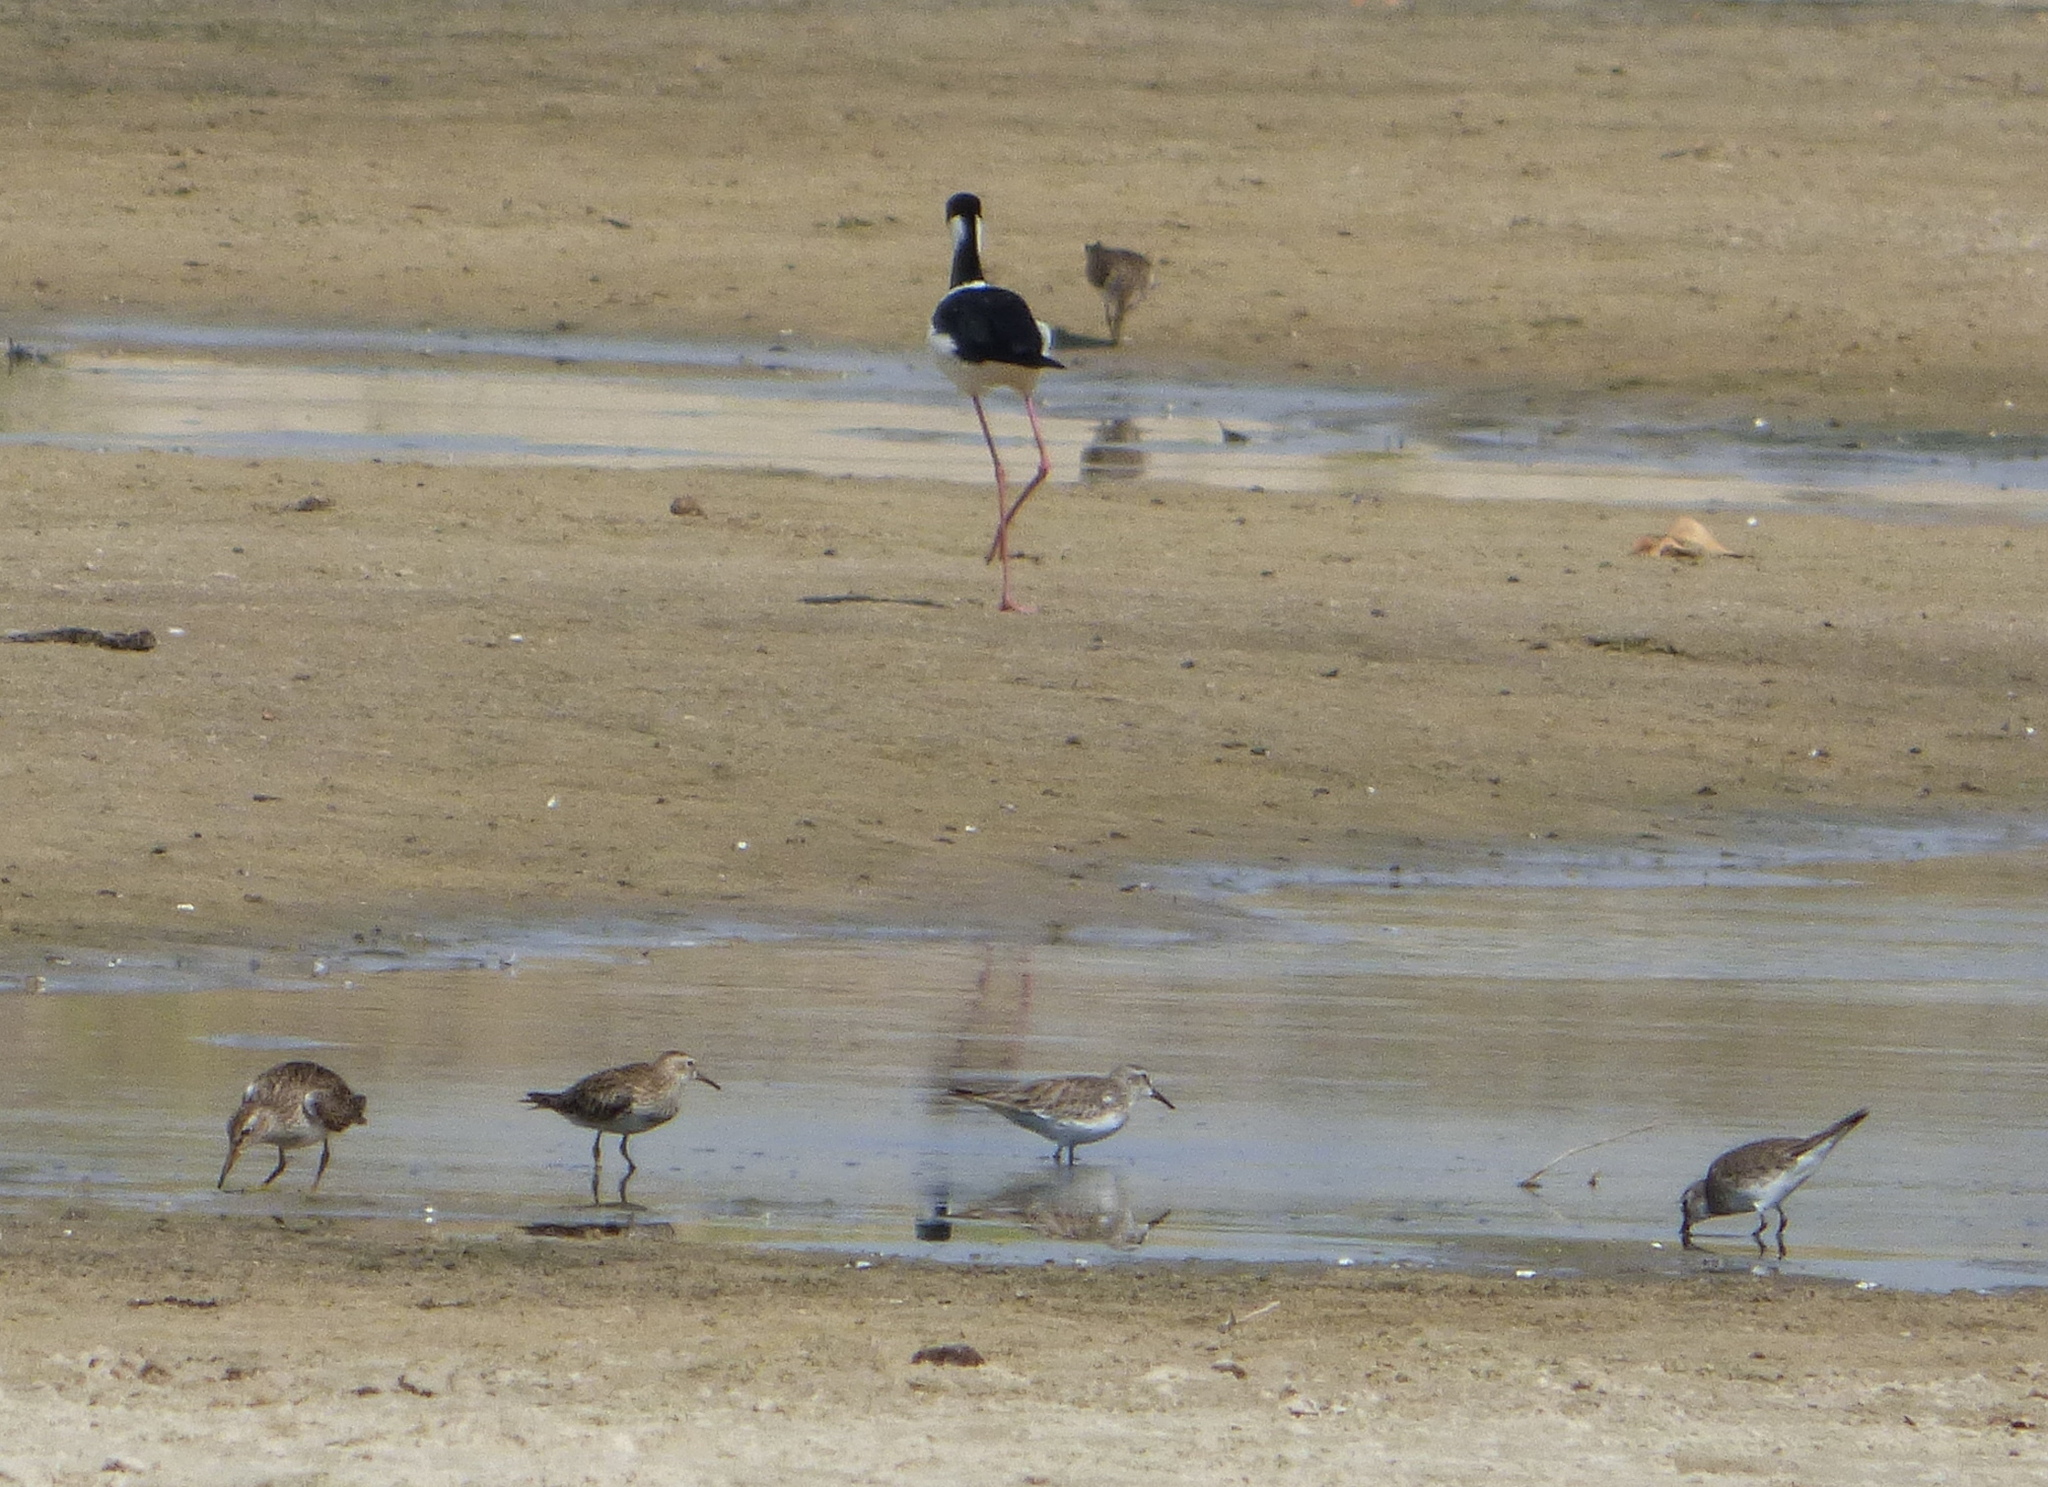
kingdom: Animalia
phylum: Chordata
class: Aves
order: Charadriiformes
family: Scolopacidae
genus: Calidris
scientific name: Calidris fuscicollis
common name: White-rumped sandpiper
